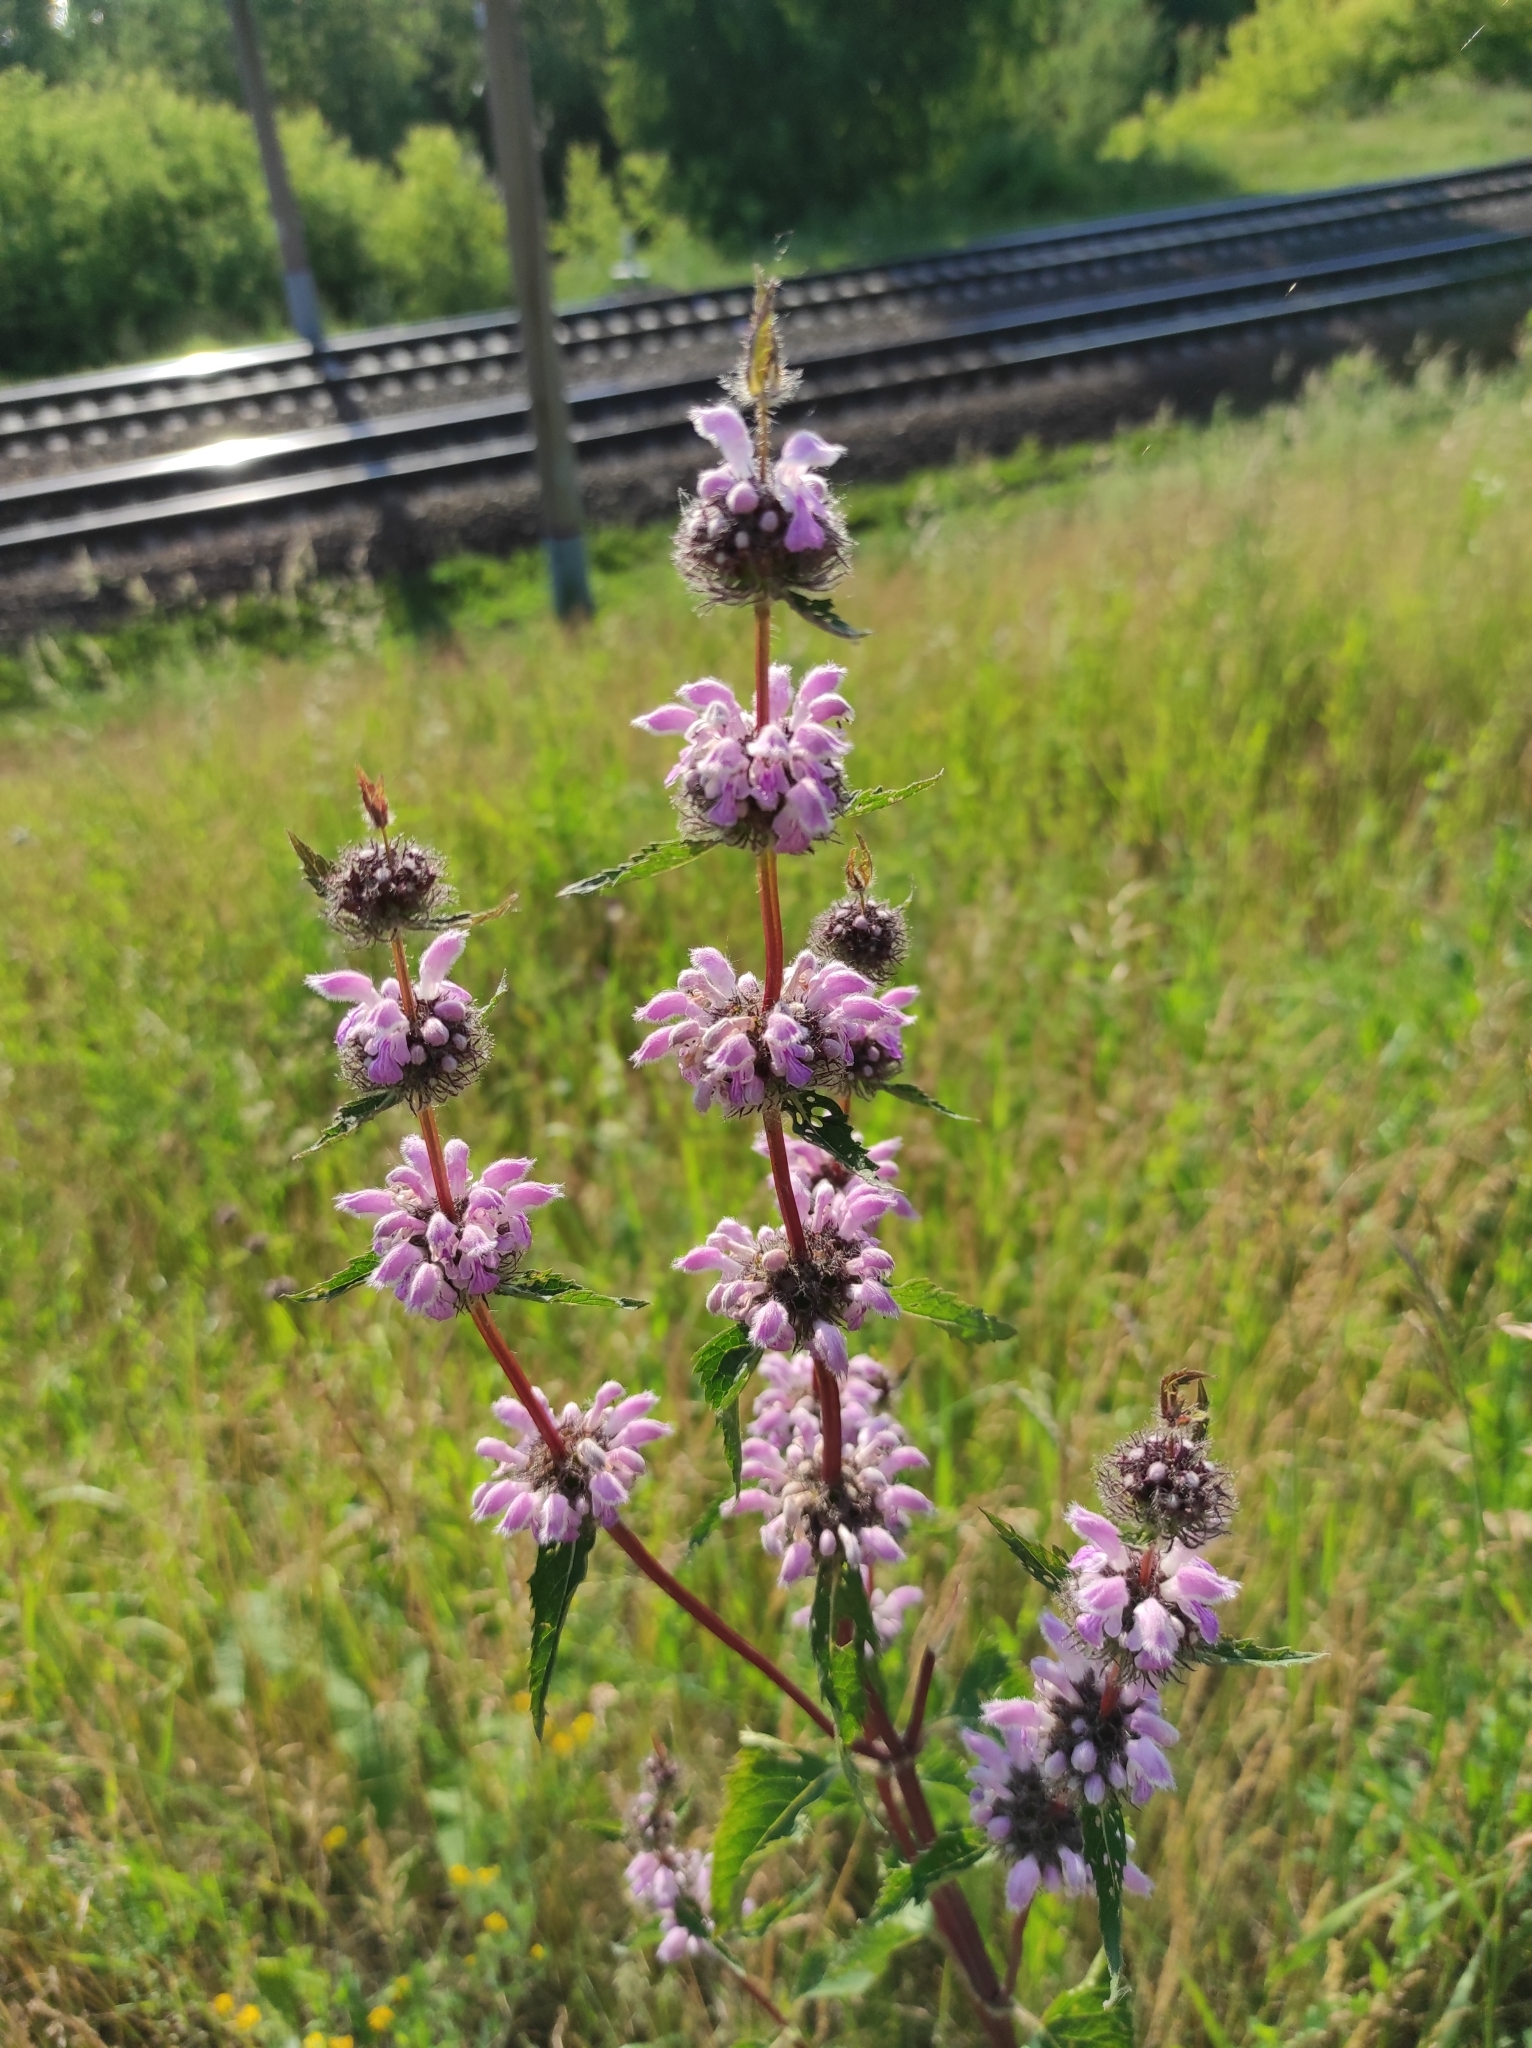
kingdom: Plantae
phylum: Tracheophyta
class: Magnoliopsida
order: Lamiales
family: Lamiaceae
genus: Phlomoides
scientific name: Phlomoides tuberosa
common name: Tuberous jerusalem sage
